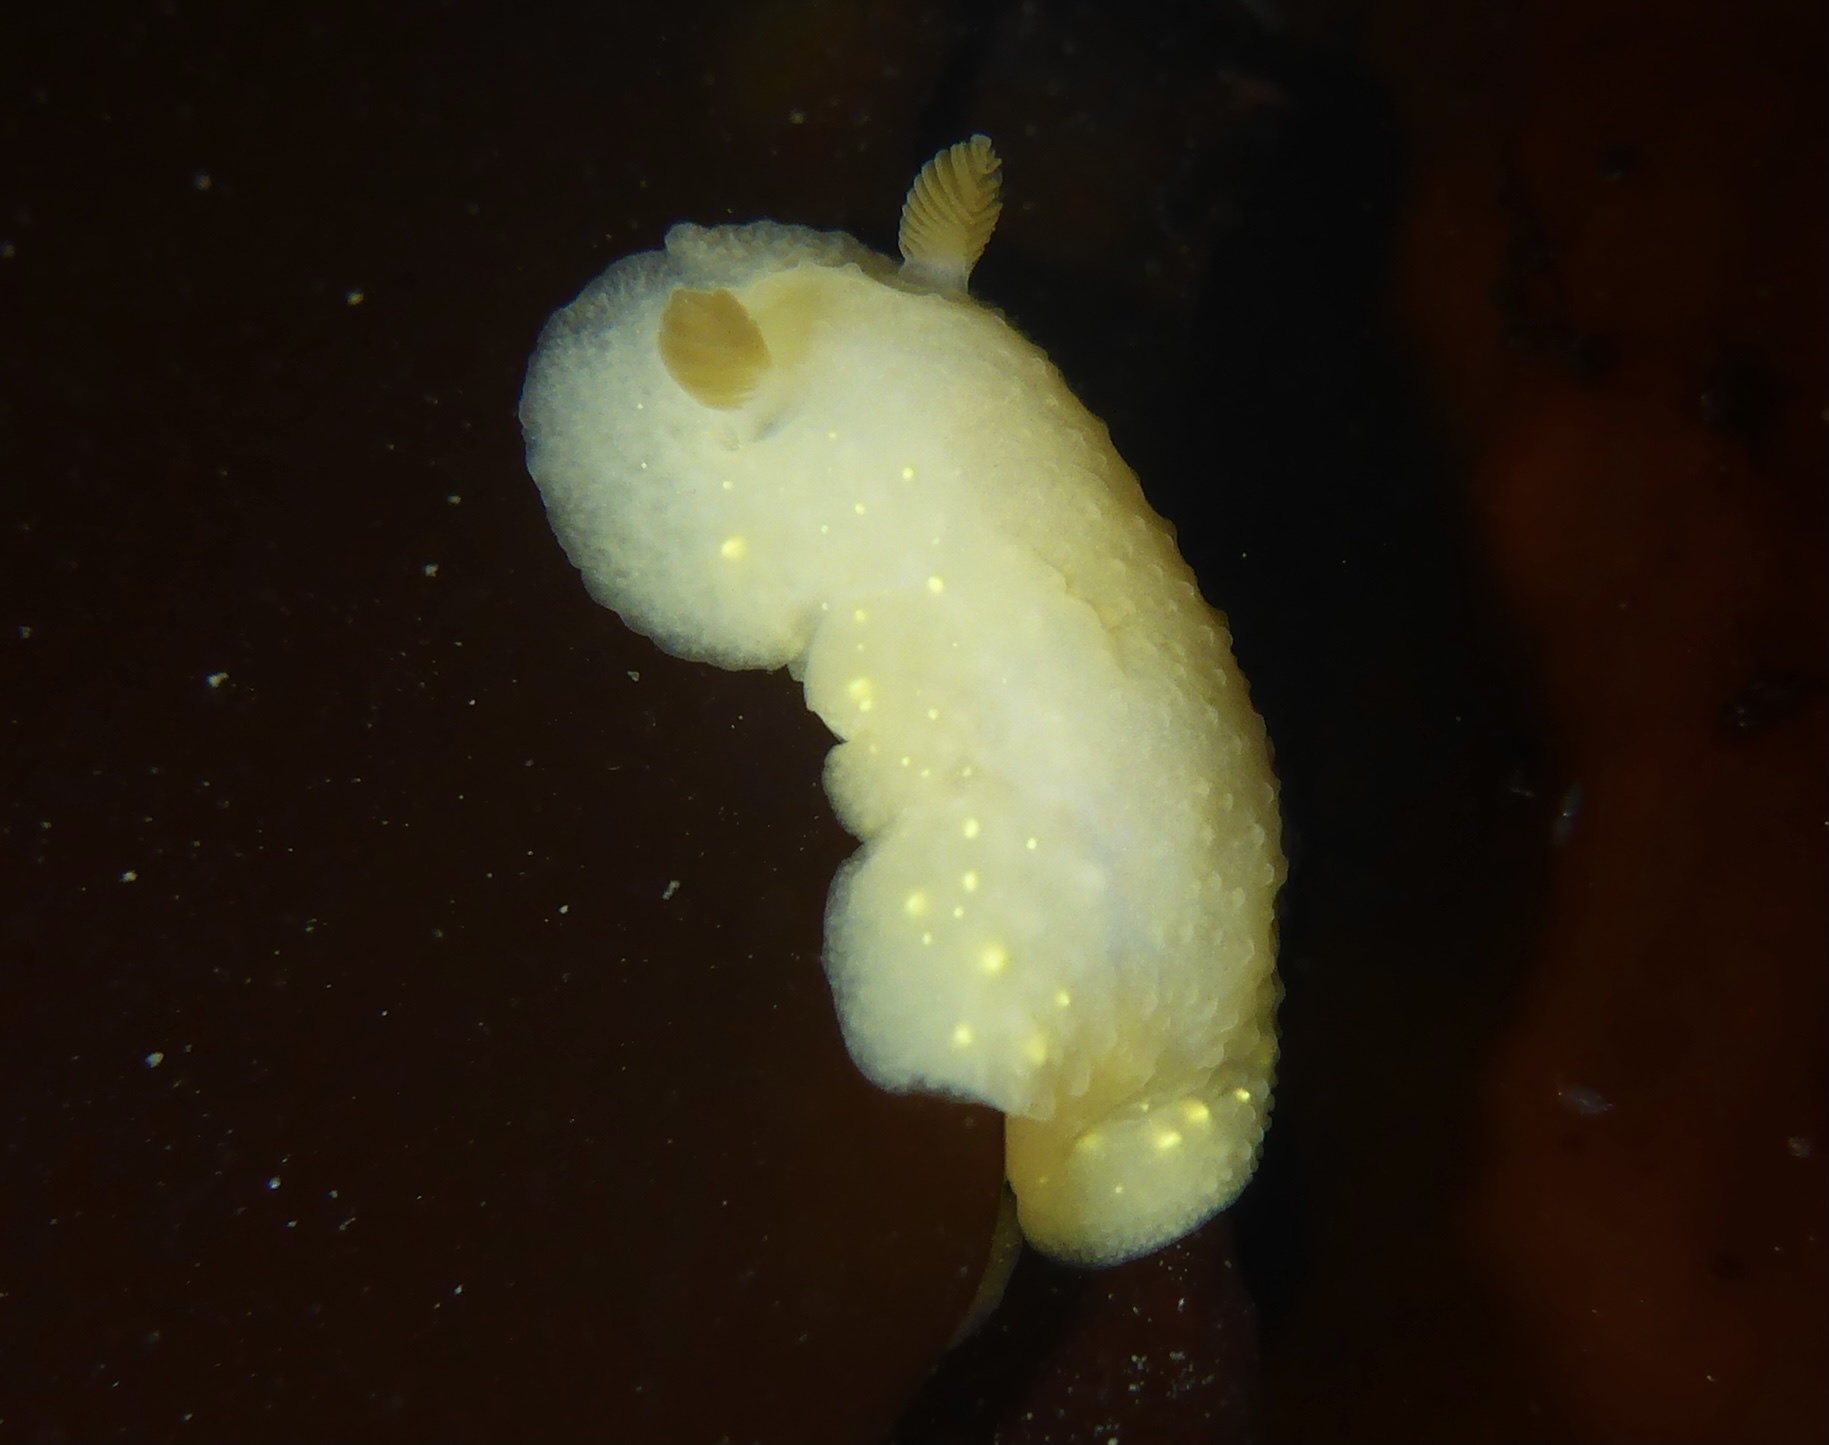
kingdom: Animalia
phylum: Mollusca
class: Gastropoda
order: Nudibranchia
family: Cadlinidae
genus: Cadlina
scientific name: Cadlina modesta
